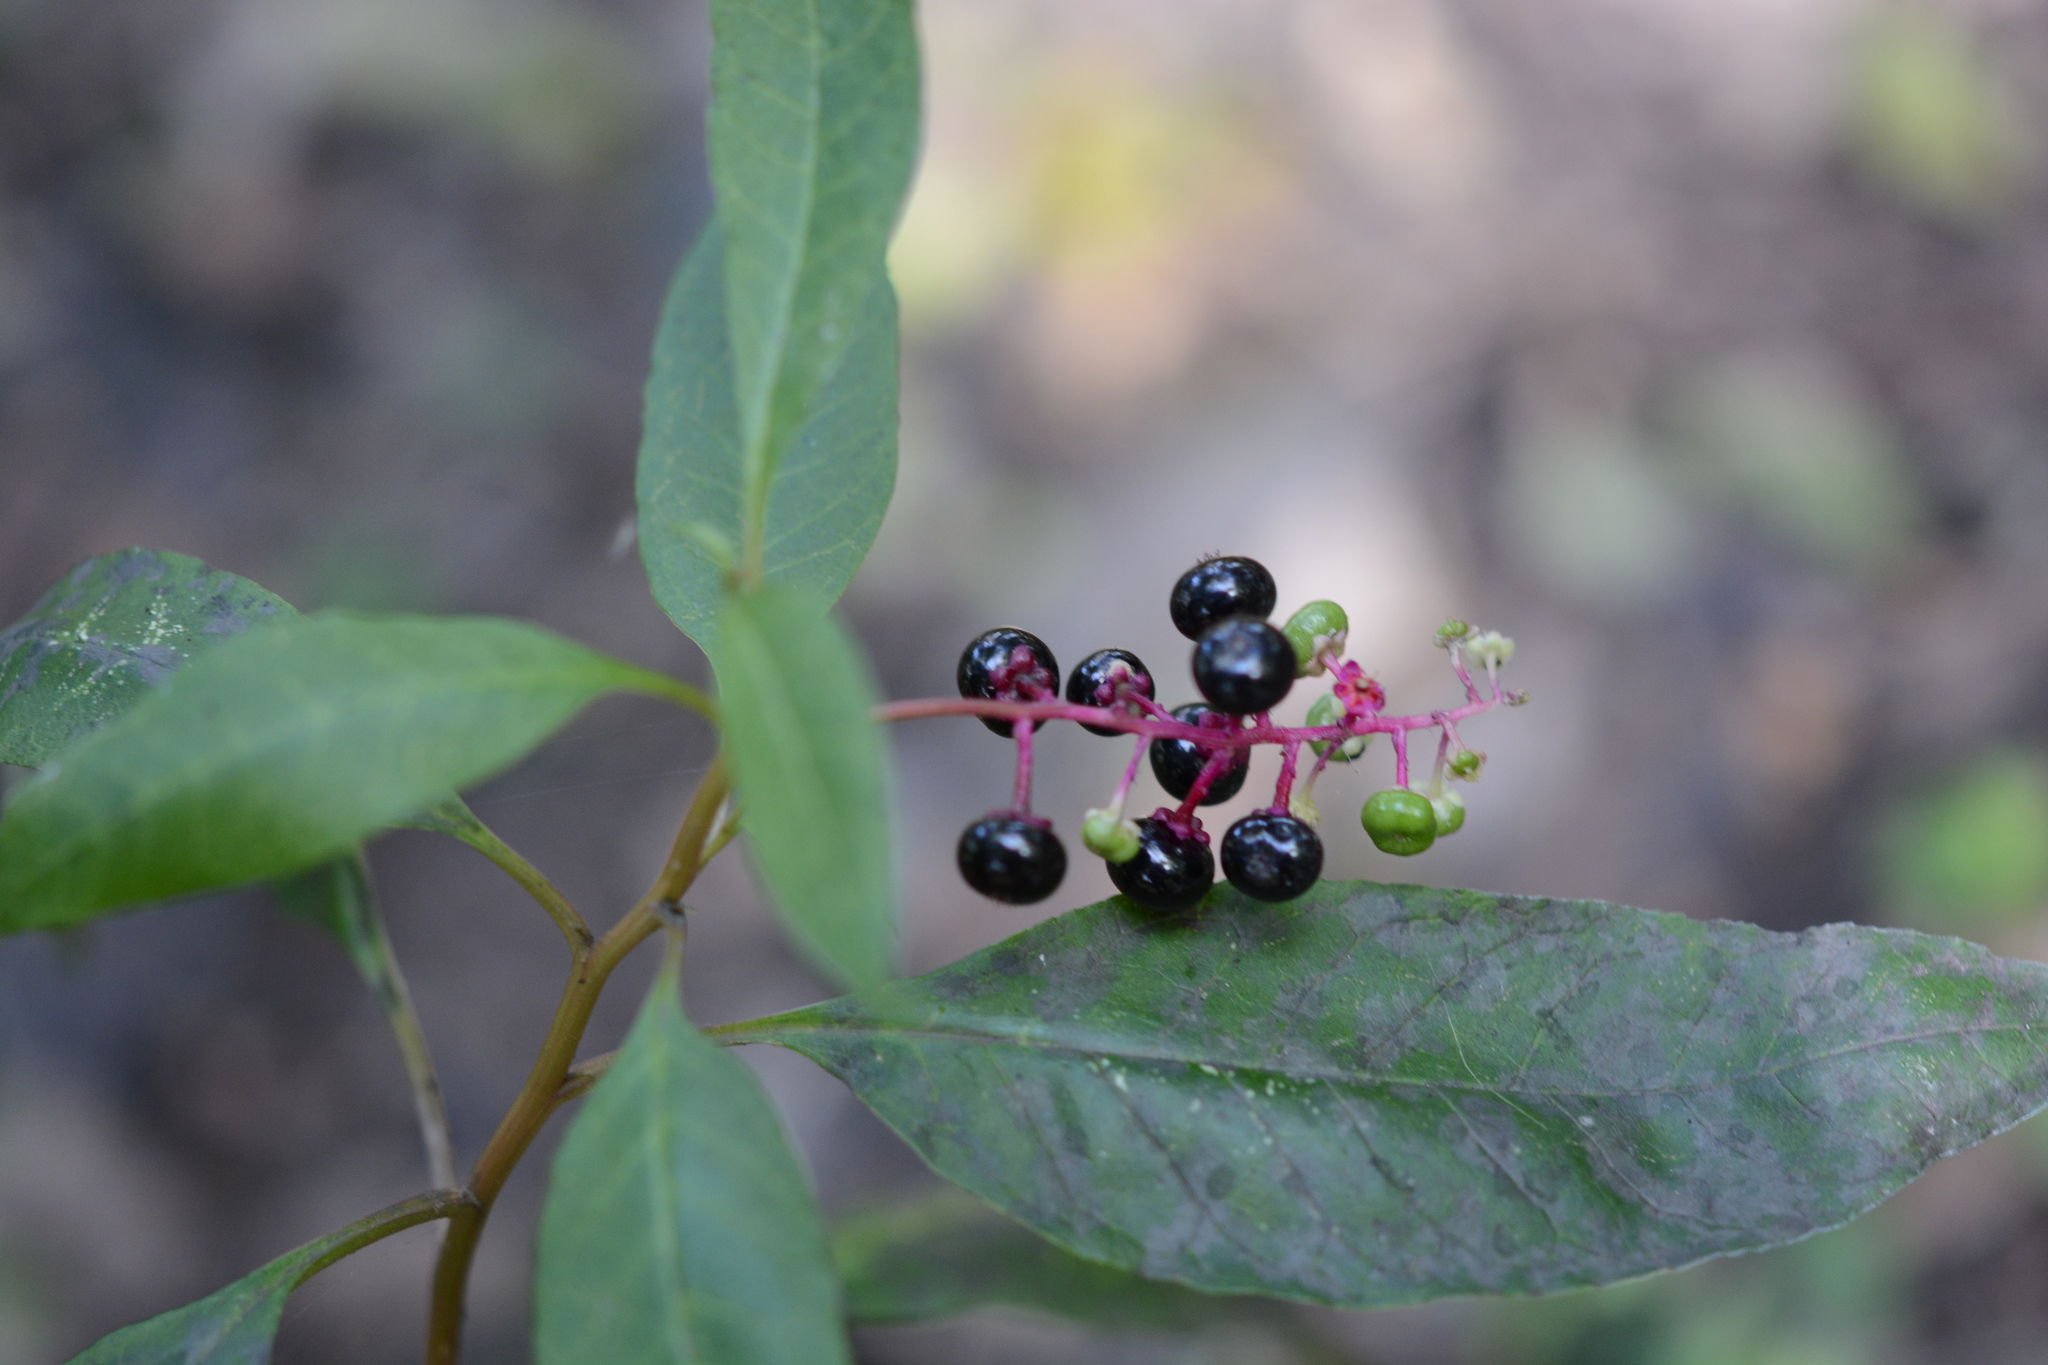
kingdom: Plantae
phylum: Tracheophyta
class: Magnoliopsida
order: Caryophyllales
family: Phytolaccaceae
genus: Phytolacca
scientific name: Phytolacca americana
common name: American pokeweed
